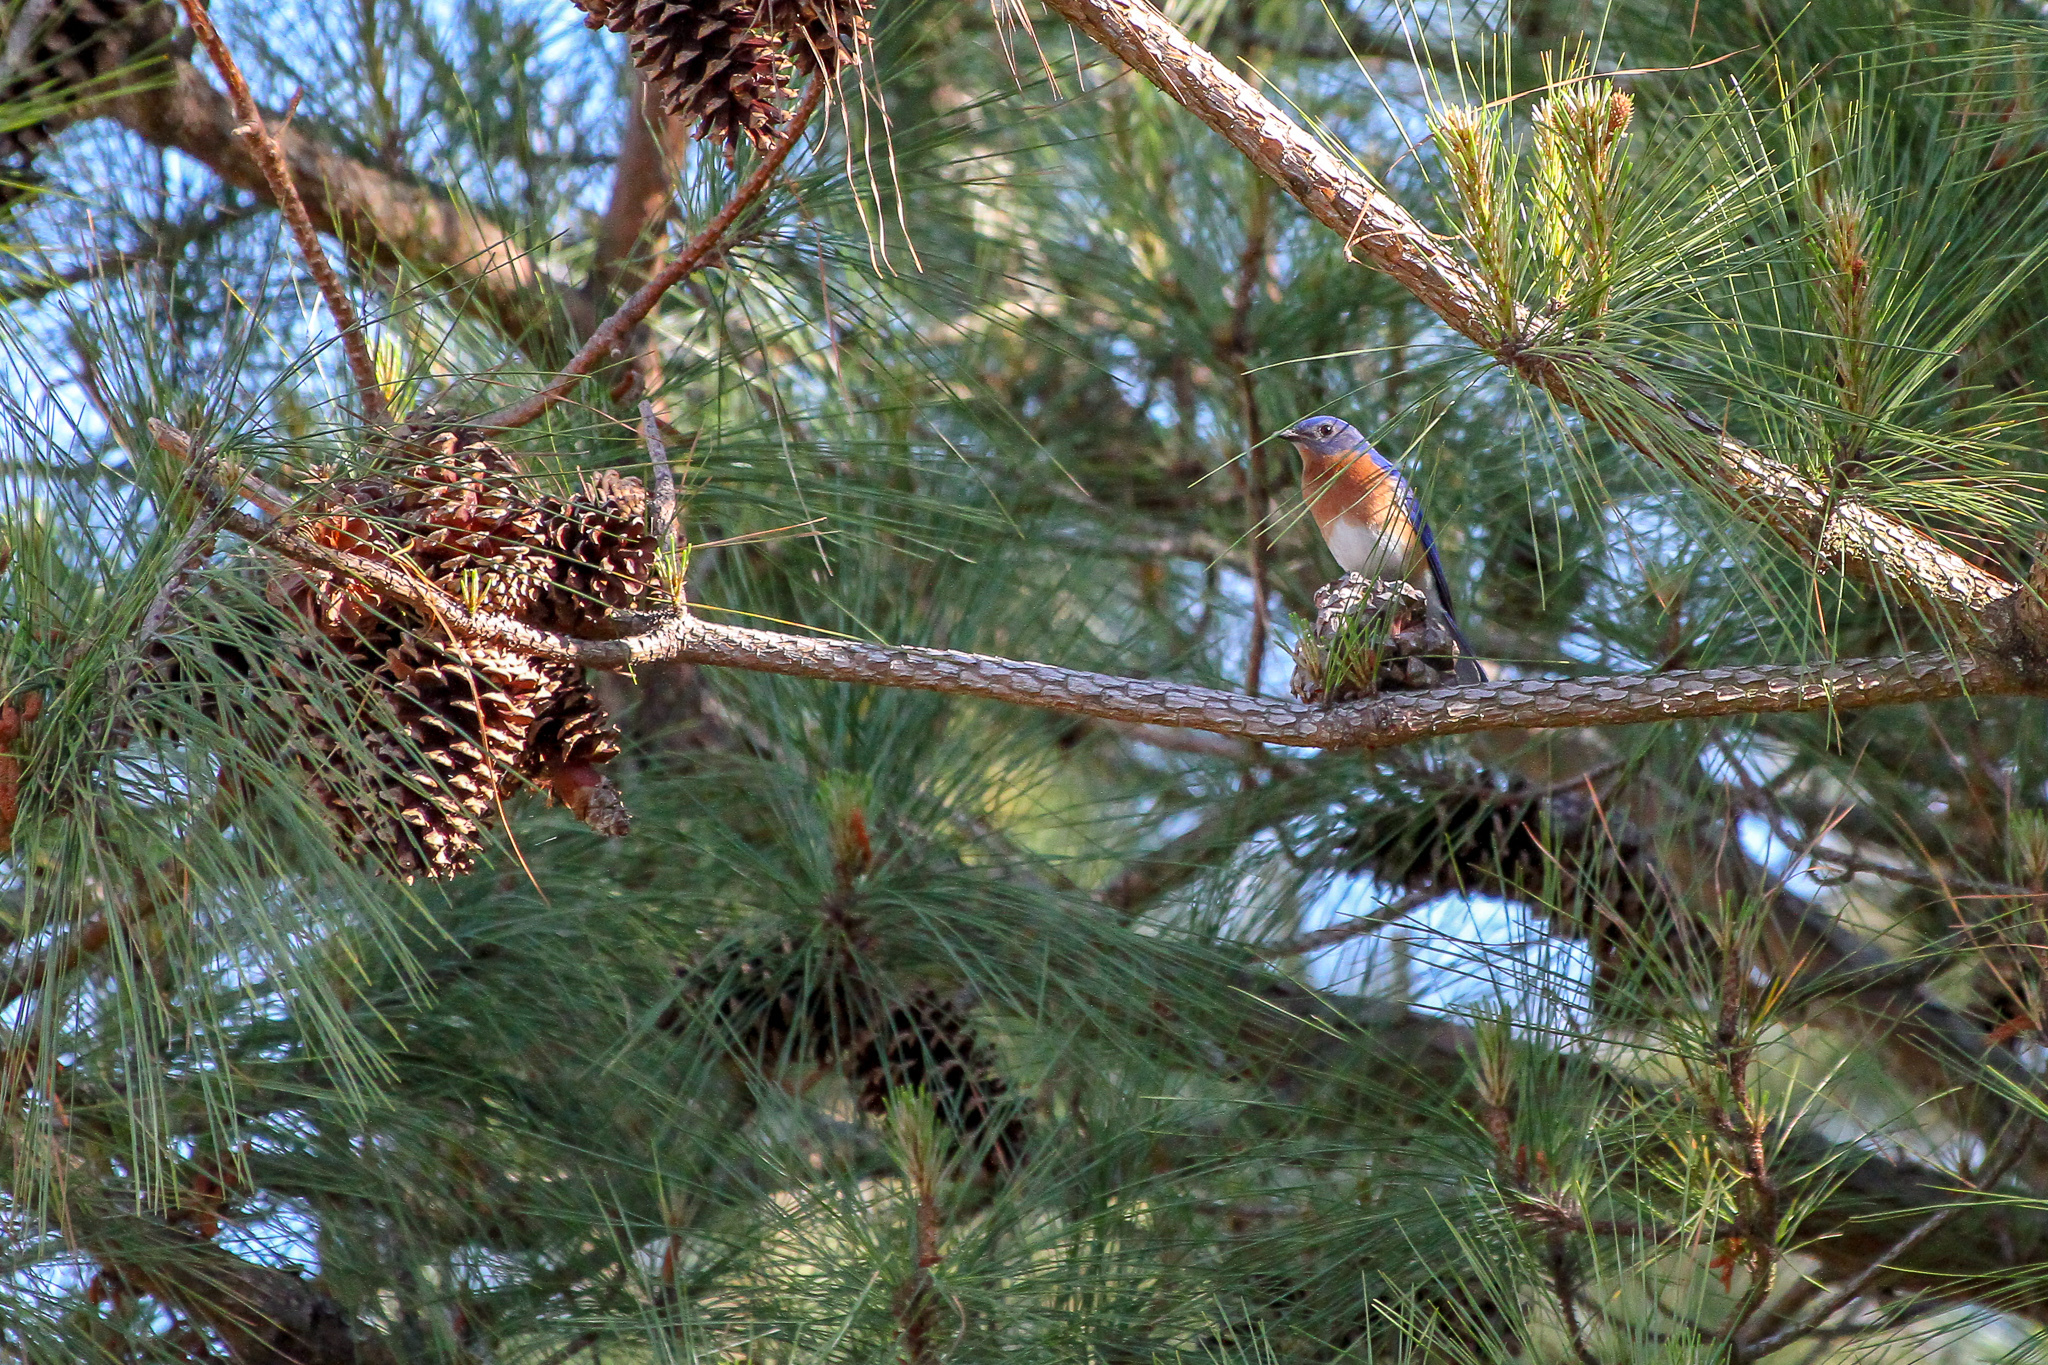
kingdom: Animalia
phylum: Chordata
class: Aves
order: Passeriformes
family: Turdidae
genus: Sialia
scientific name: Sialia sialis
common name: Eastern bluebird
